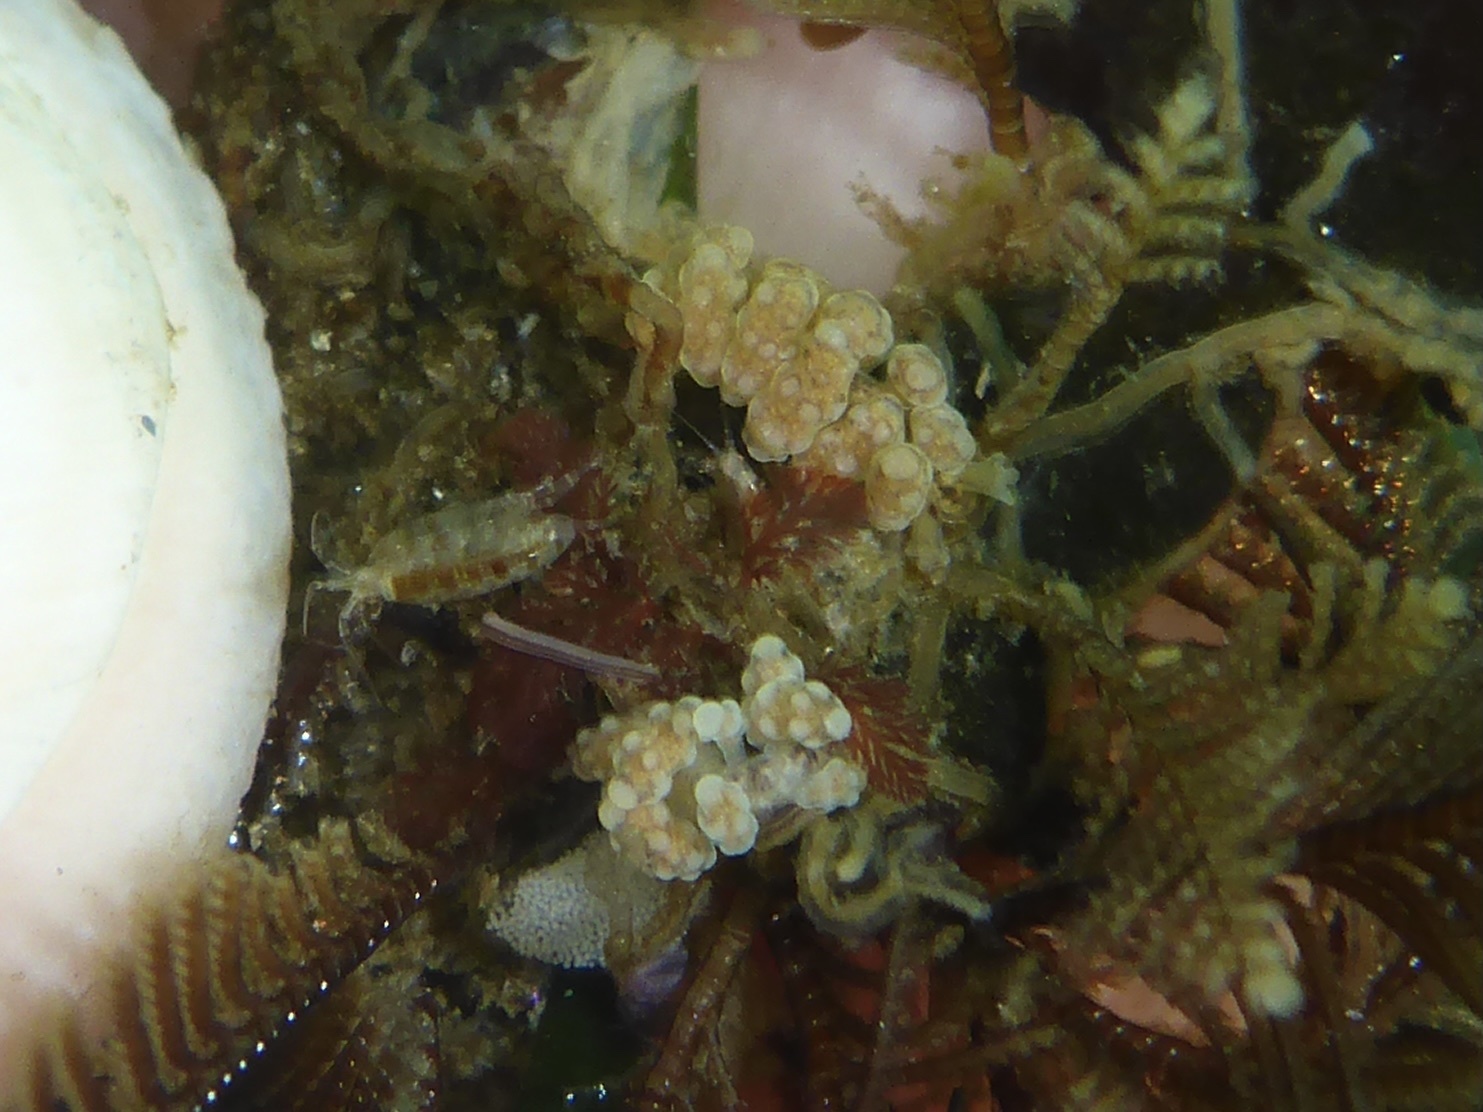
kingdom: Animalia
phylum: Mollusca
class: Gastropoda
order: Nudibranchia
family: Dotidae
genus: Doto
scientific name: Doto columbiana
